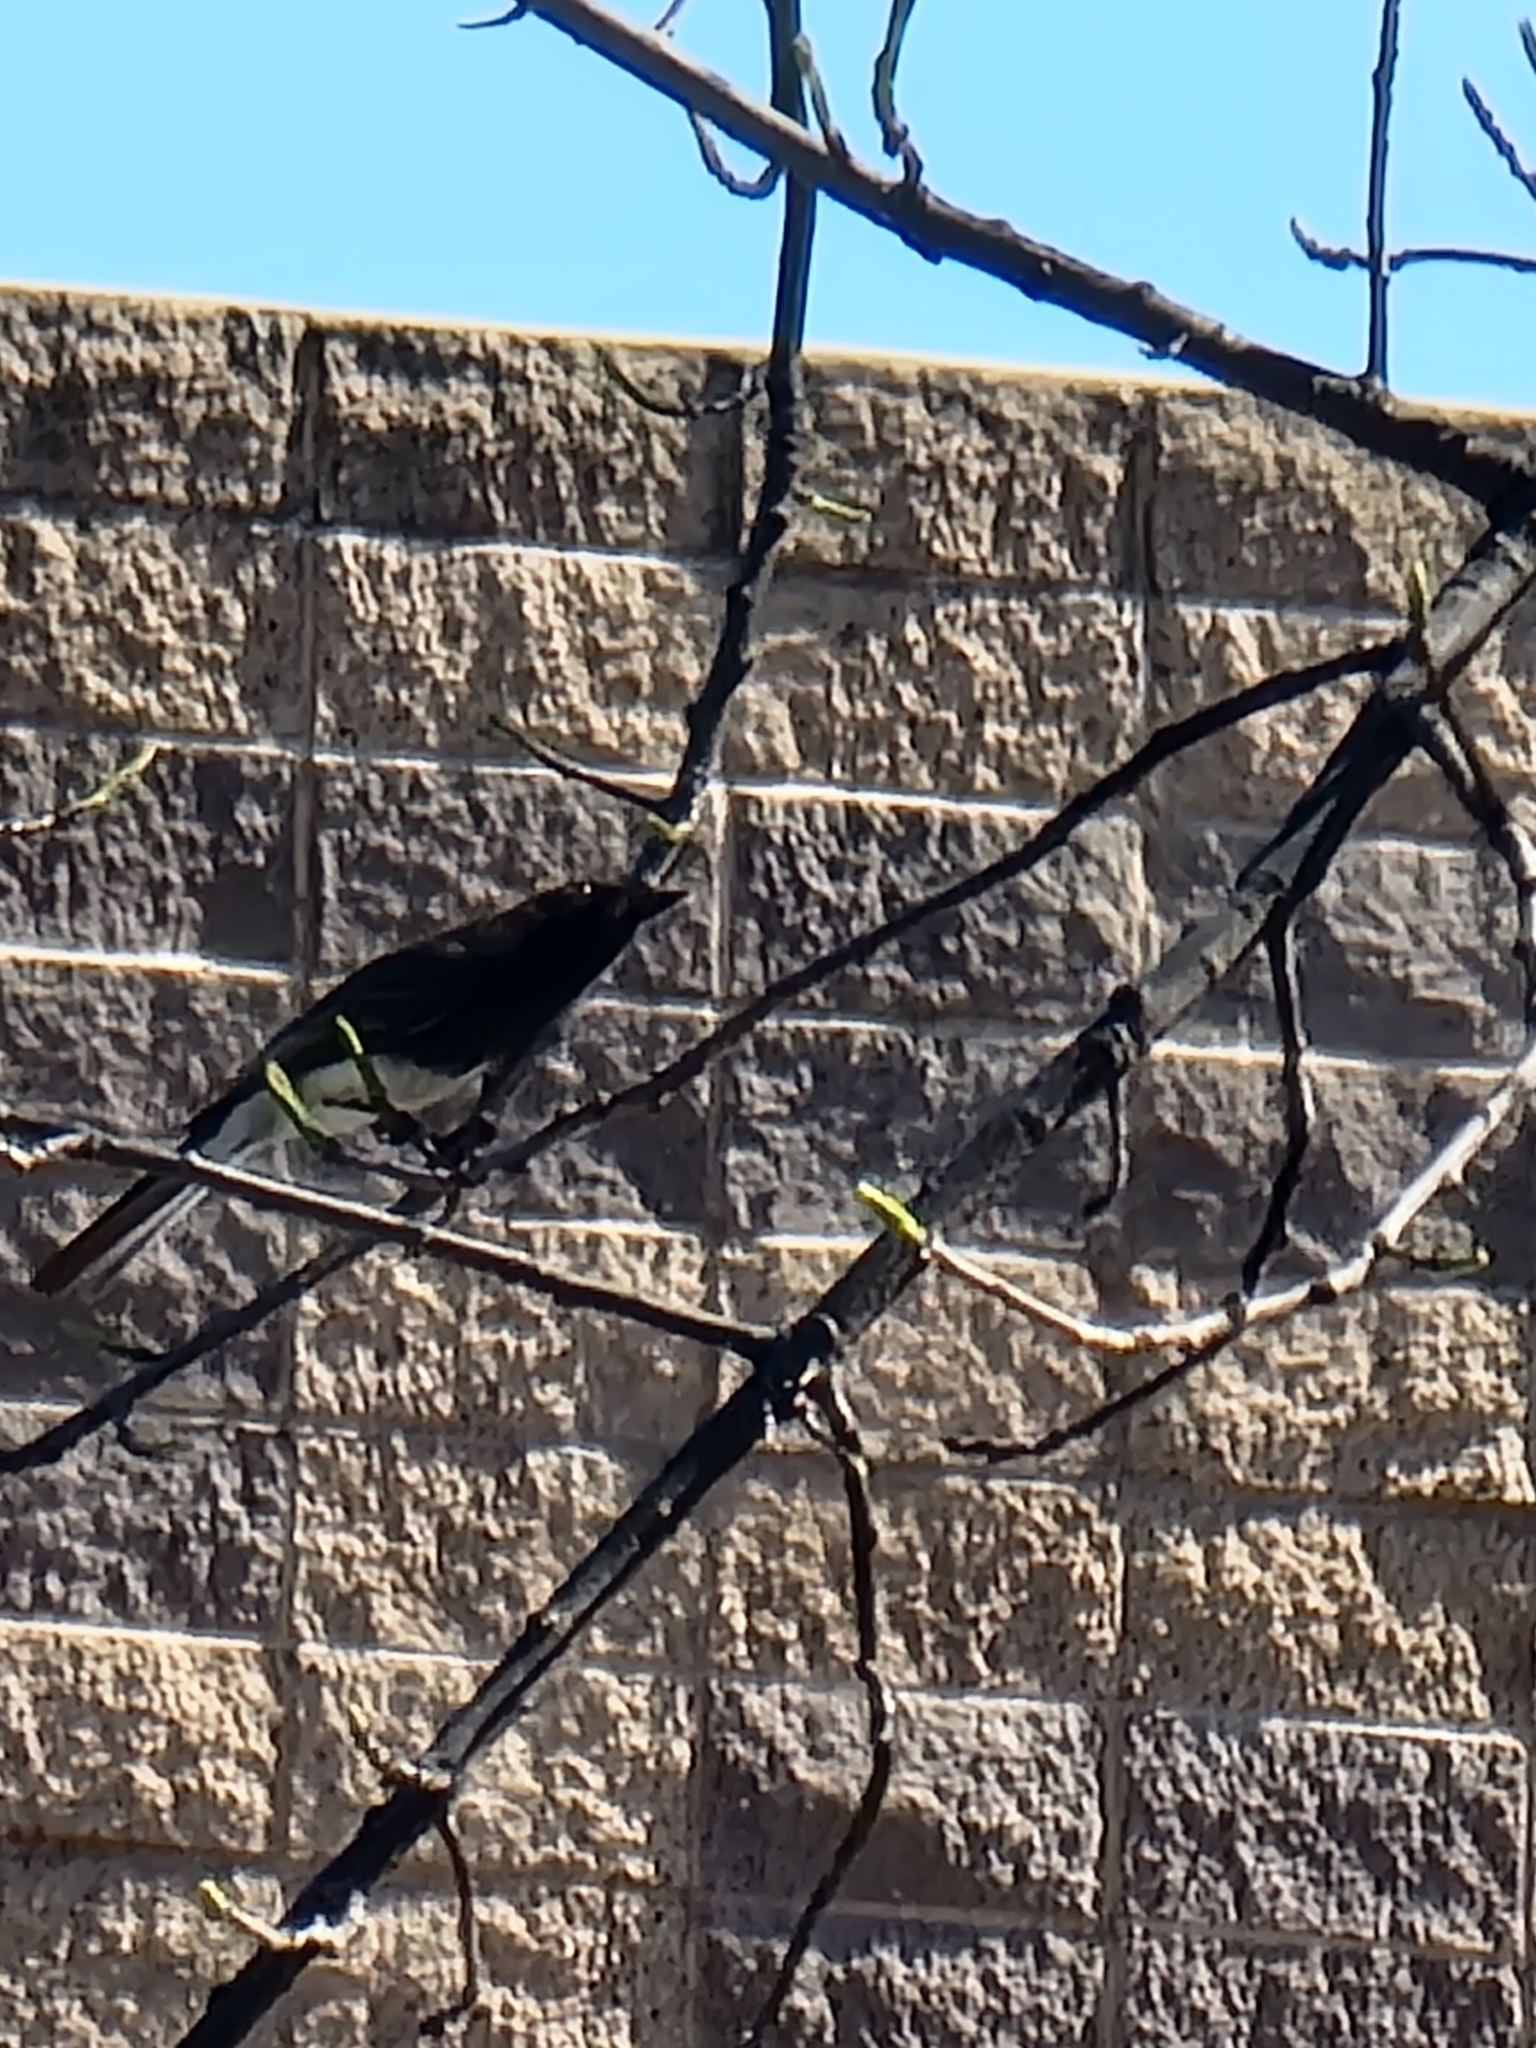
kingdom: Animalia
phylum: Chordata
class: Aves
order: Passeriformes
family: Tyrannidae
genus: Sayornis
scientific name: Sayornis nigricans
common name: Black phoebe
